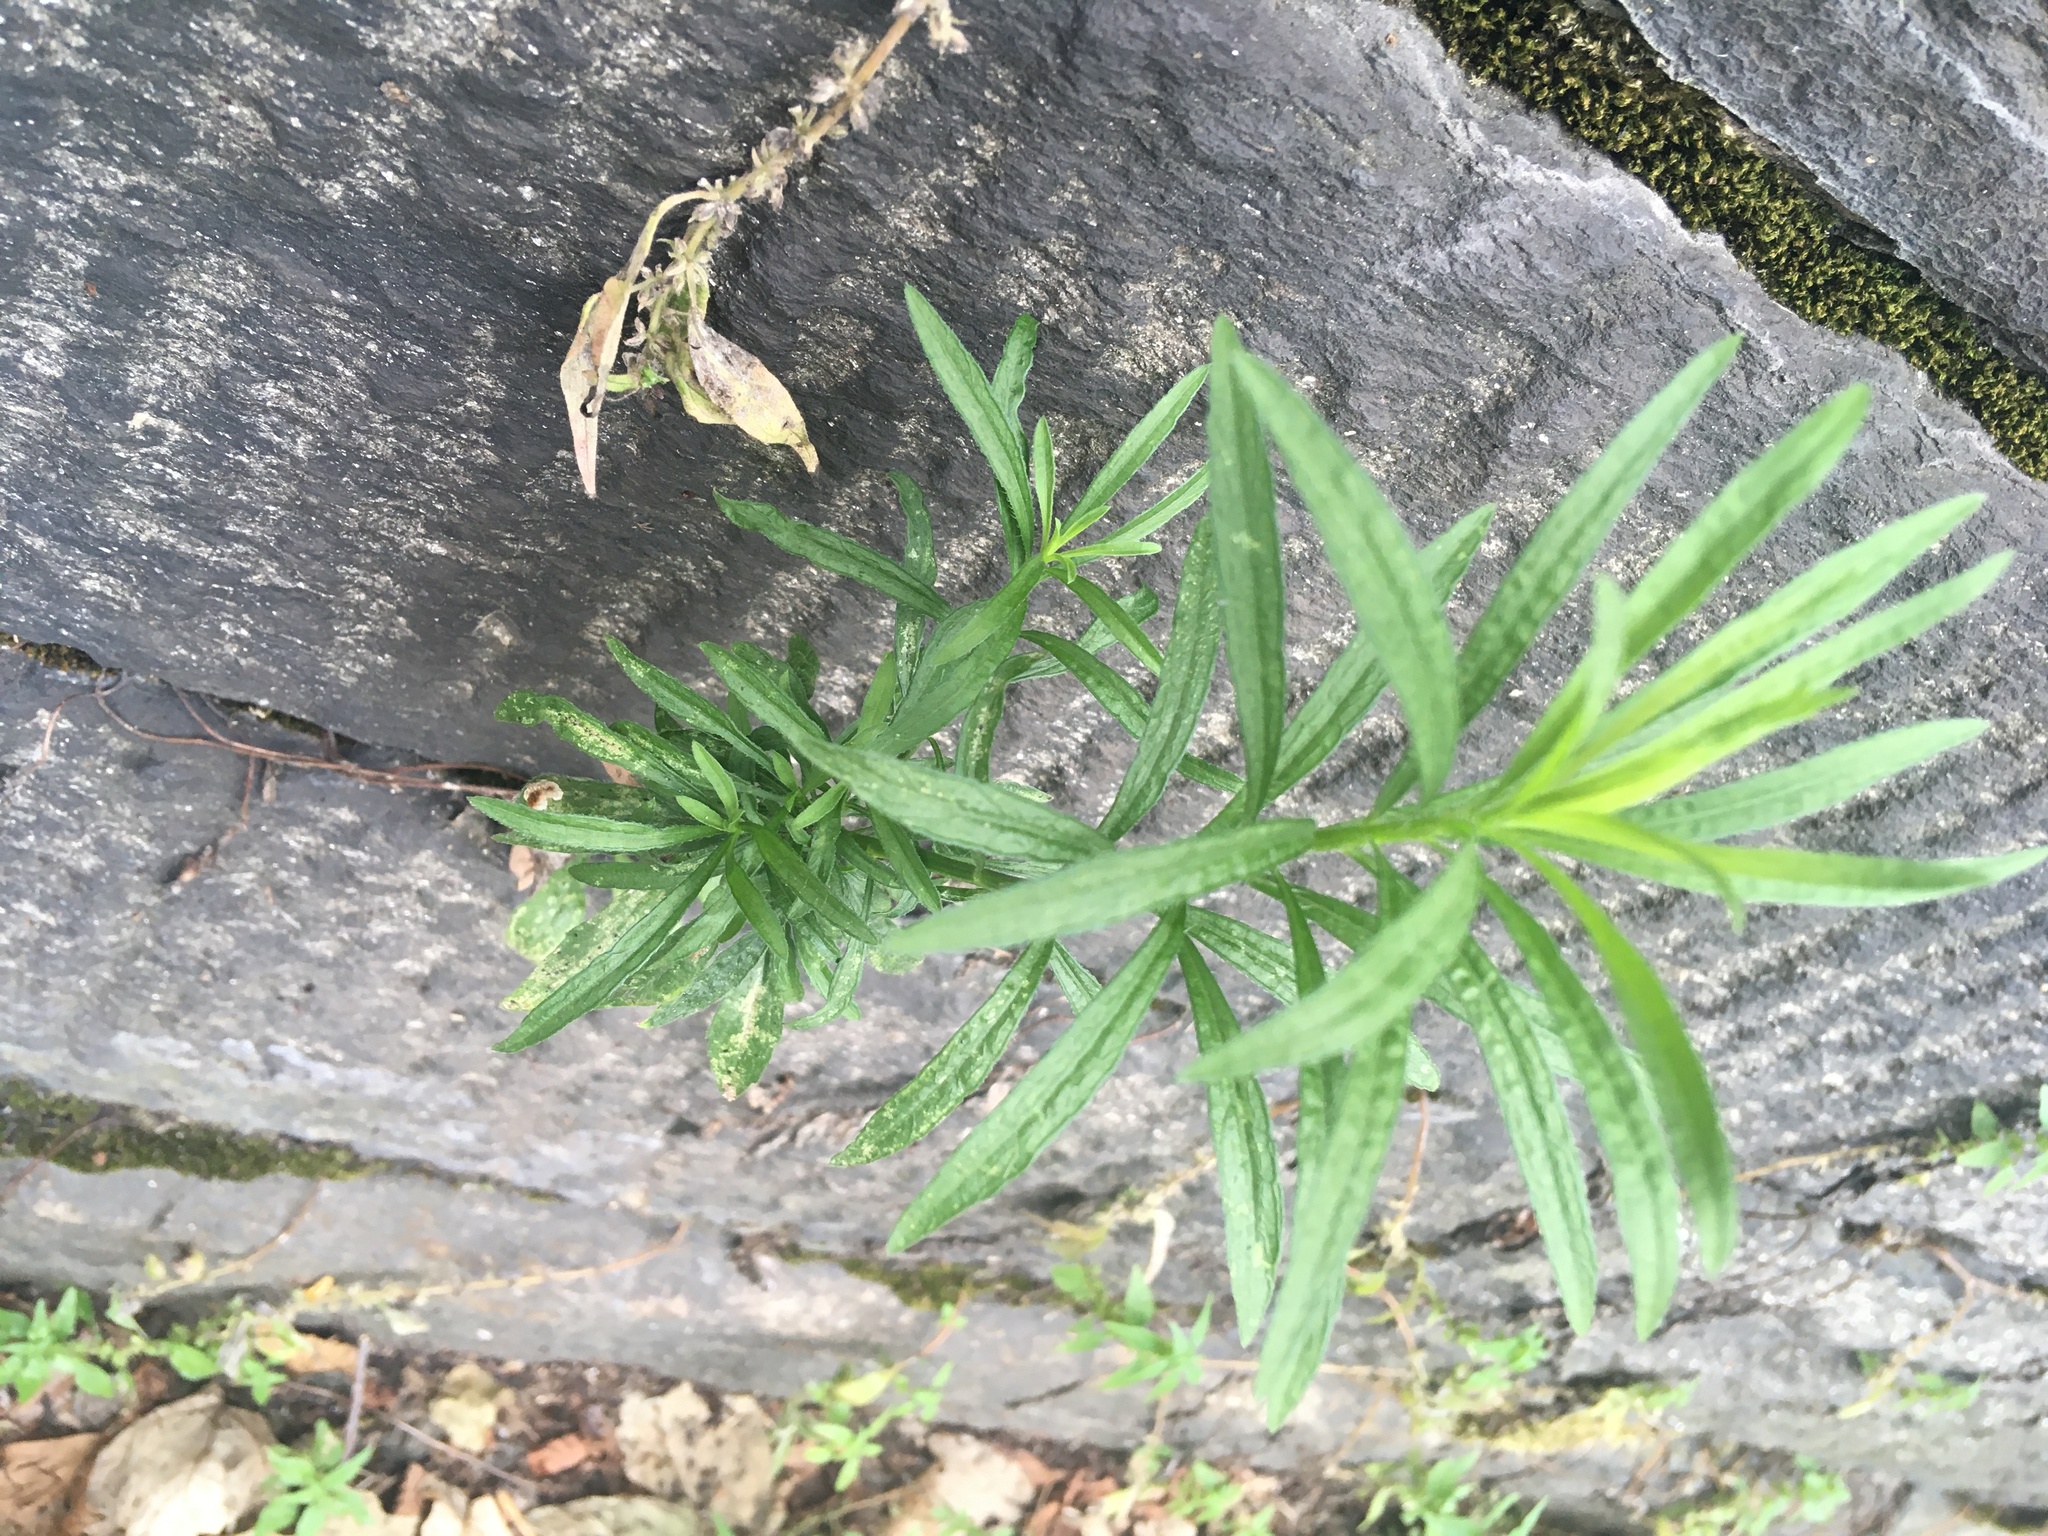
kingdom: Plantae
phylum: Tracheophyta
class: Magnoliopsida
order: Asterales
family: Asteraceae
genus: Erigeron
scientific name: Erigeron canadensis
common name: Canadian fleabane
